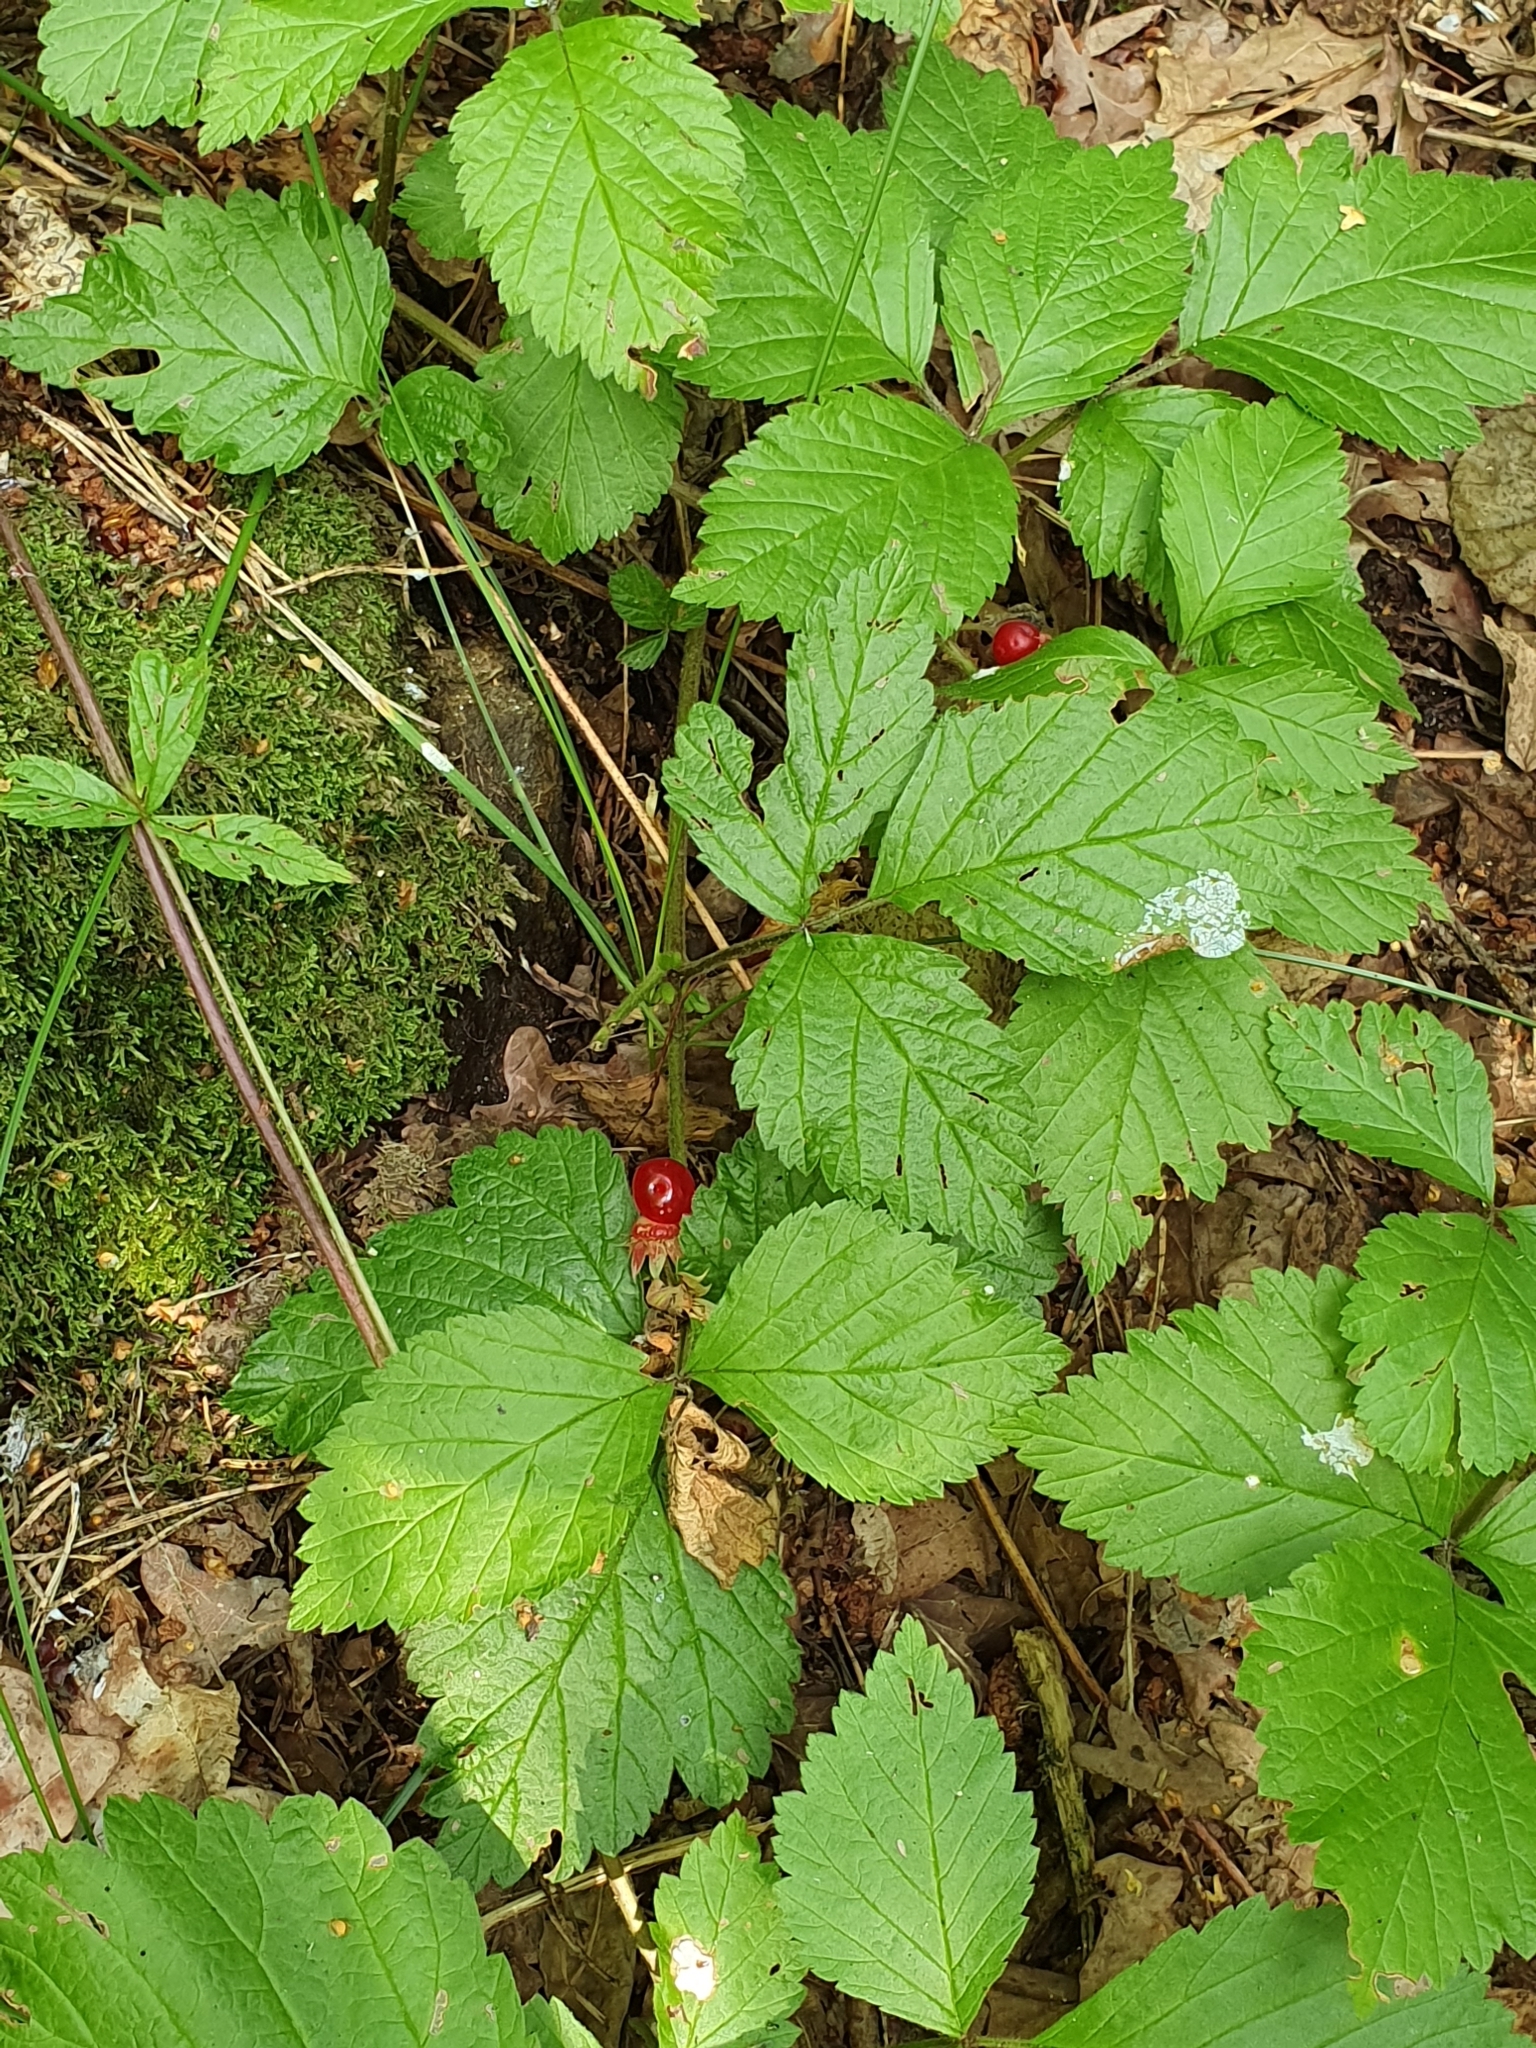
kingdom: Plantae
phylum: Tracheophyta
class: Magnoliopsida
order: Rosales
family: Rosaceae
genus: Rubus
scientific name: Rubus saxatilis
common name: Stone bramble
